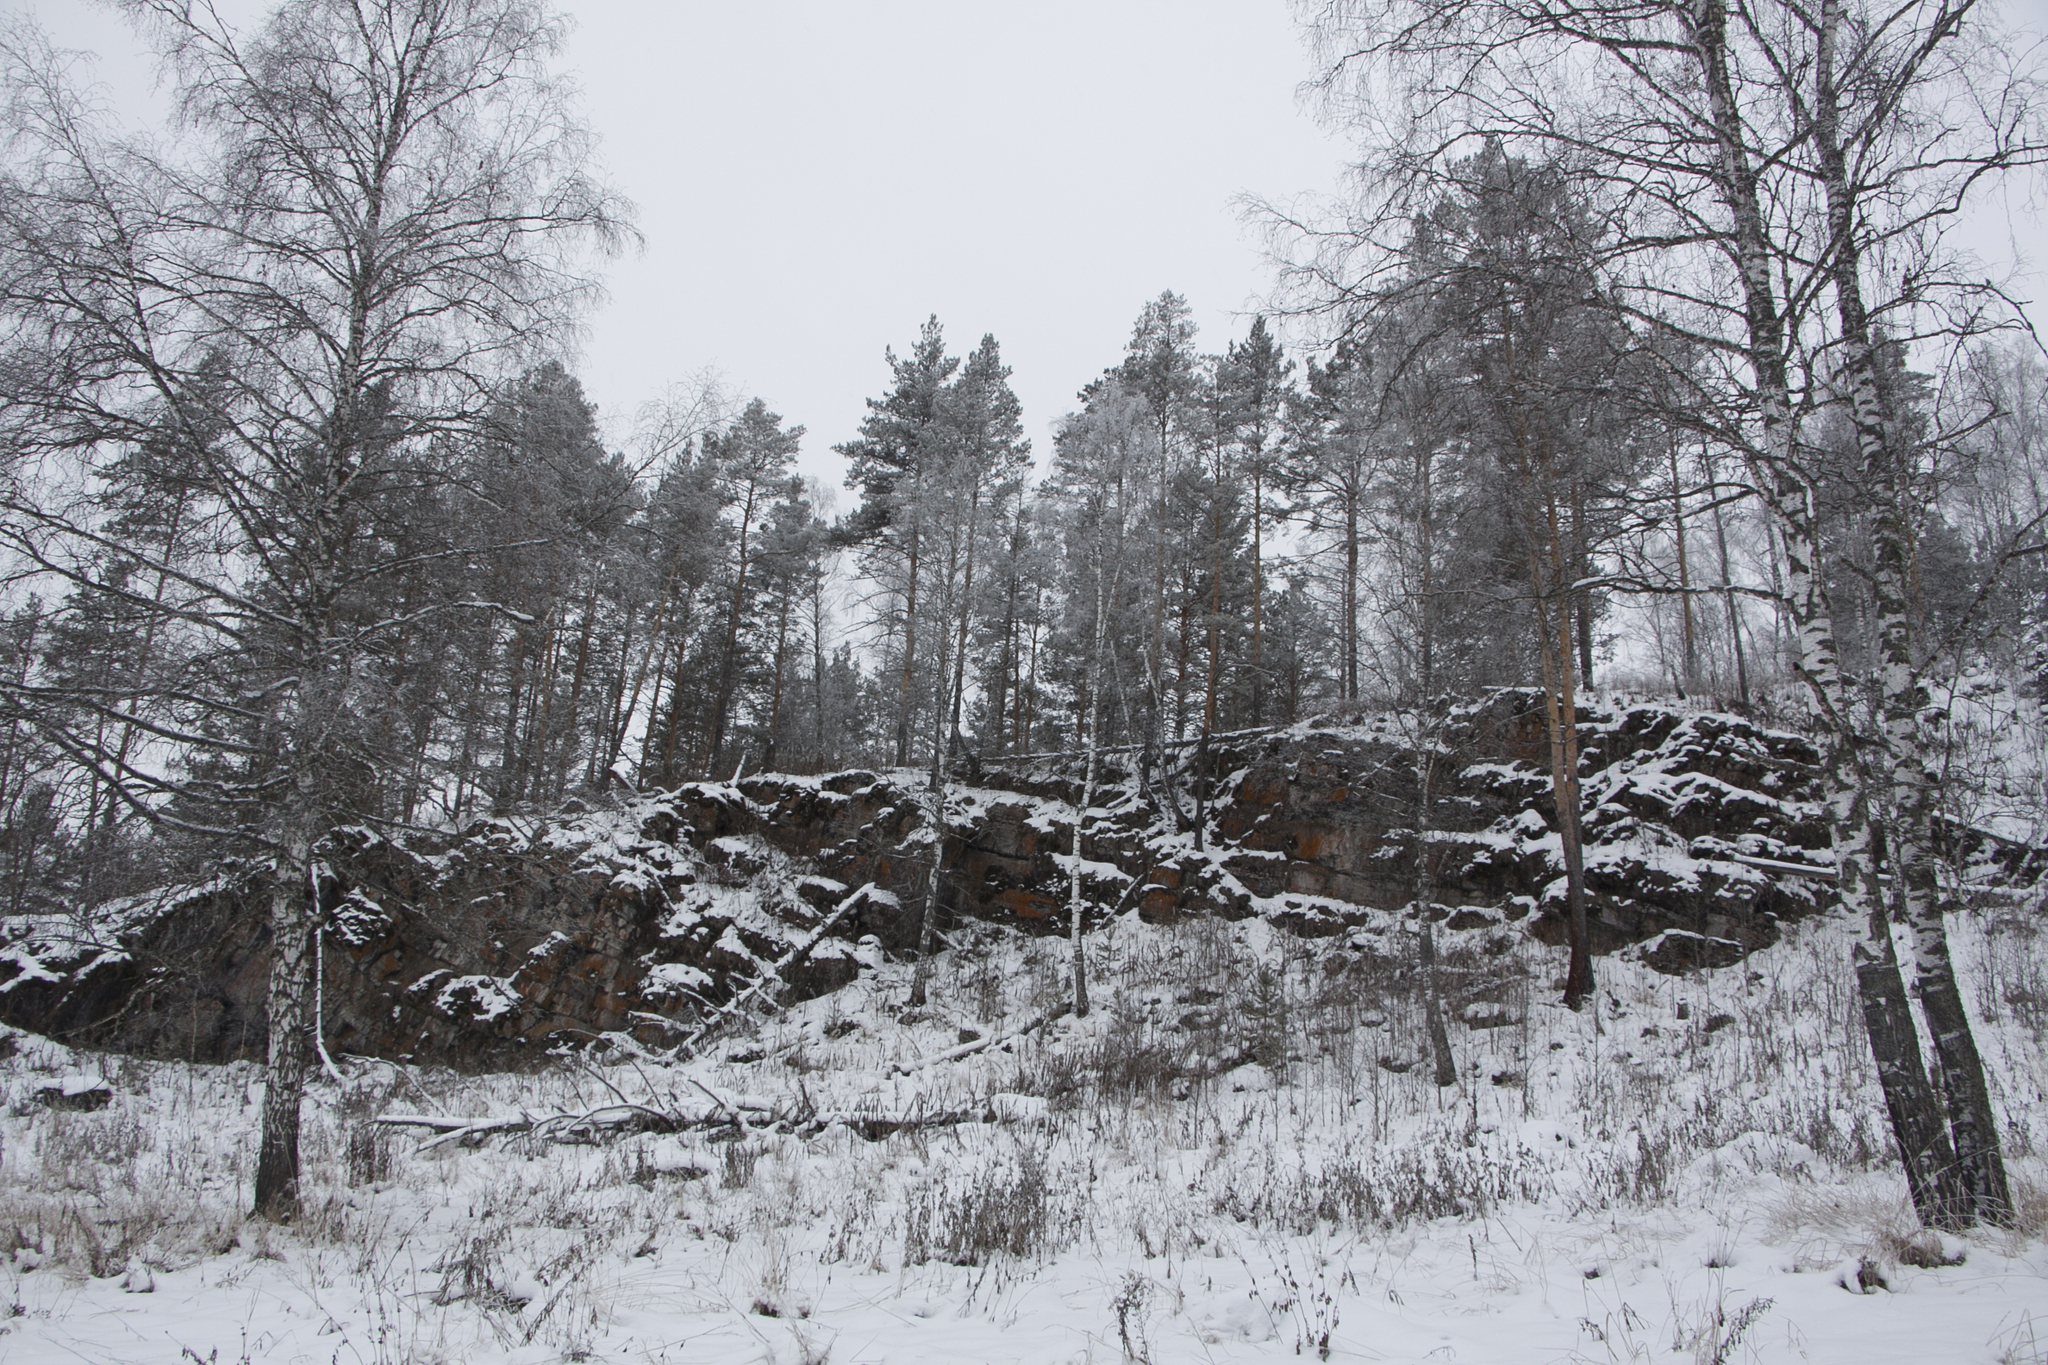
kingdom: Plantae
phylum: Tracheophyta
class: Magnoliopsida
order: Fagales
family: Betulaceae
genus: Betula
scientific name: Betula pendula
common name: Silver birch
